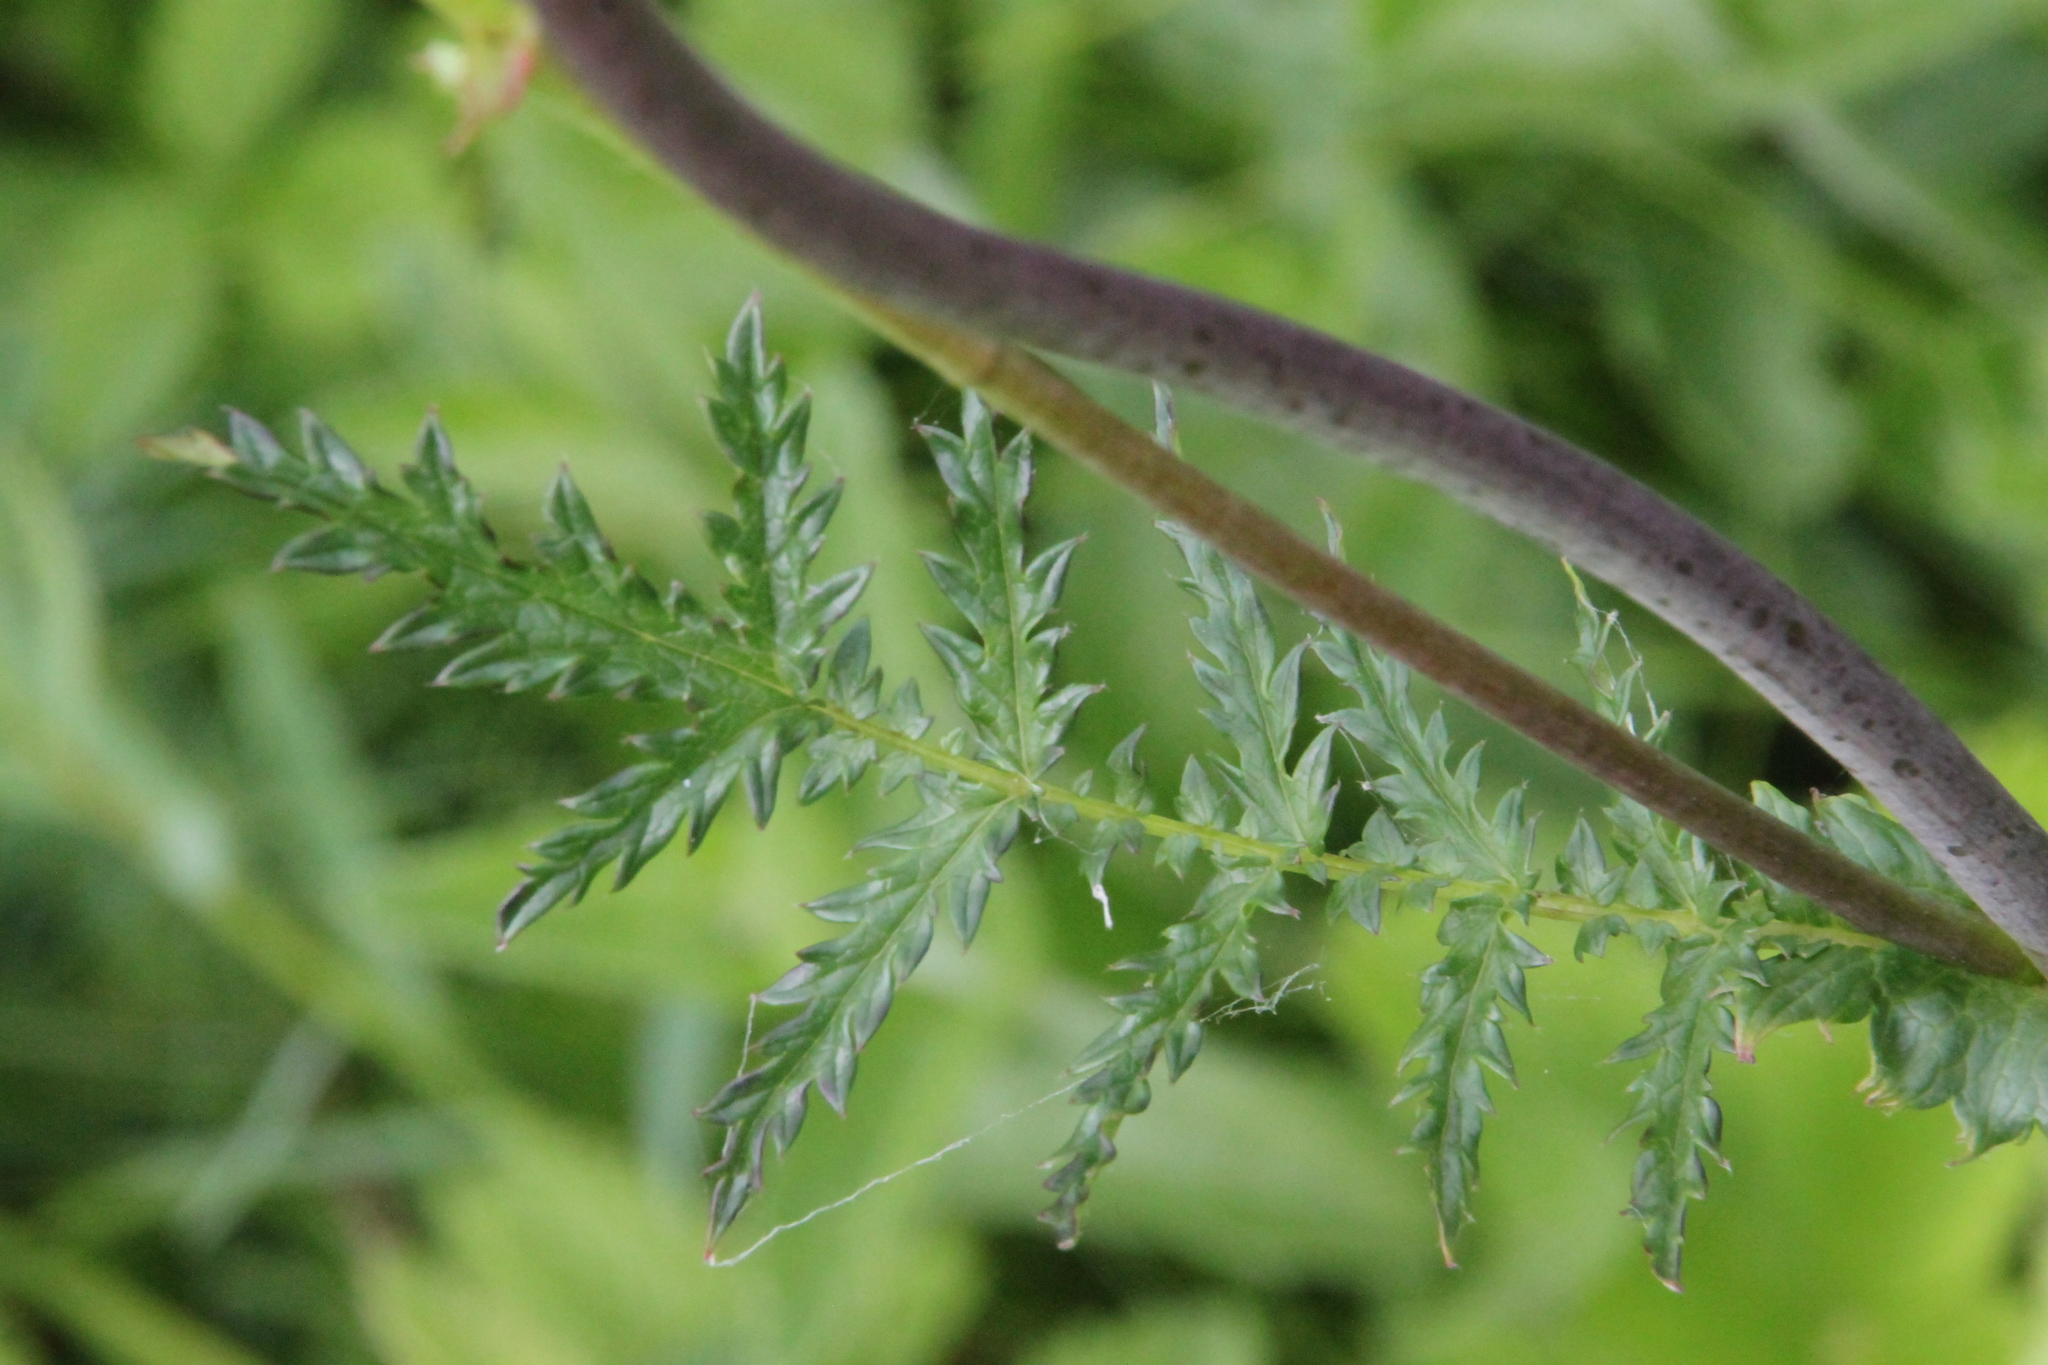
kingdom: Plantae
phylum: Tracheophyta
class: Magnoliopsida
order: Rosales
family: Rosaceae
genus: Filipendula
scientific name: Filipendula vulgaris
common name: Dropwort
